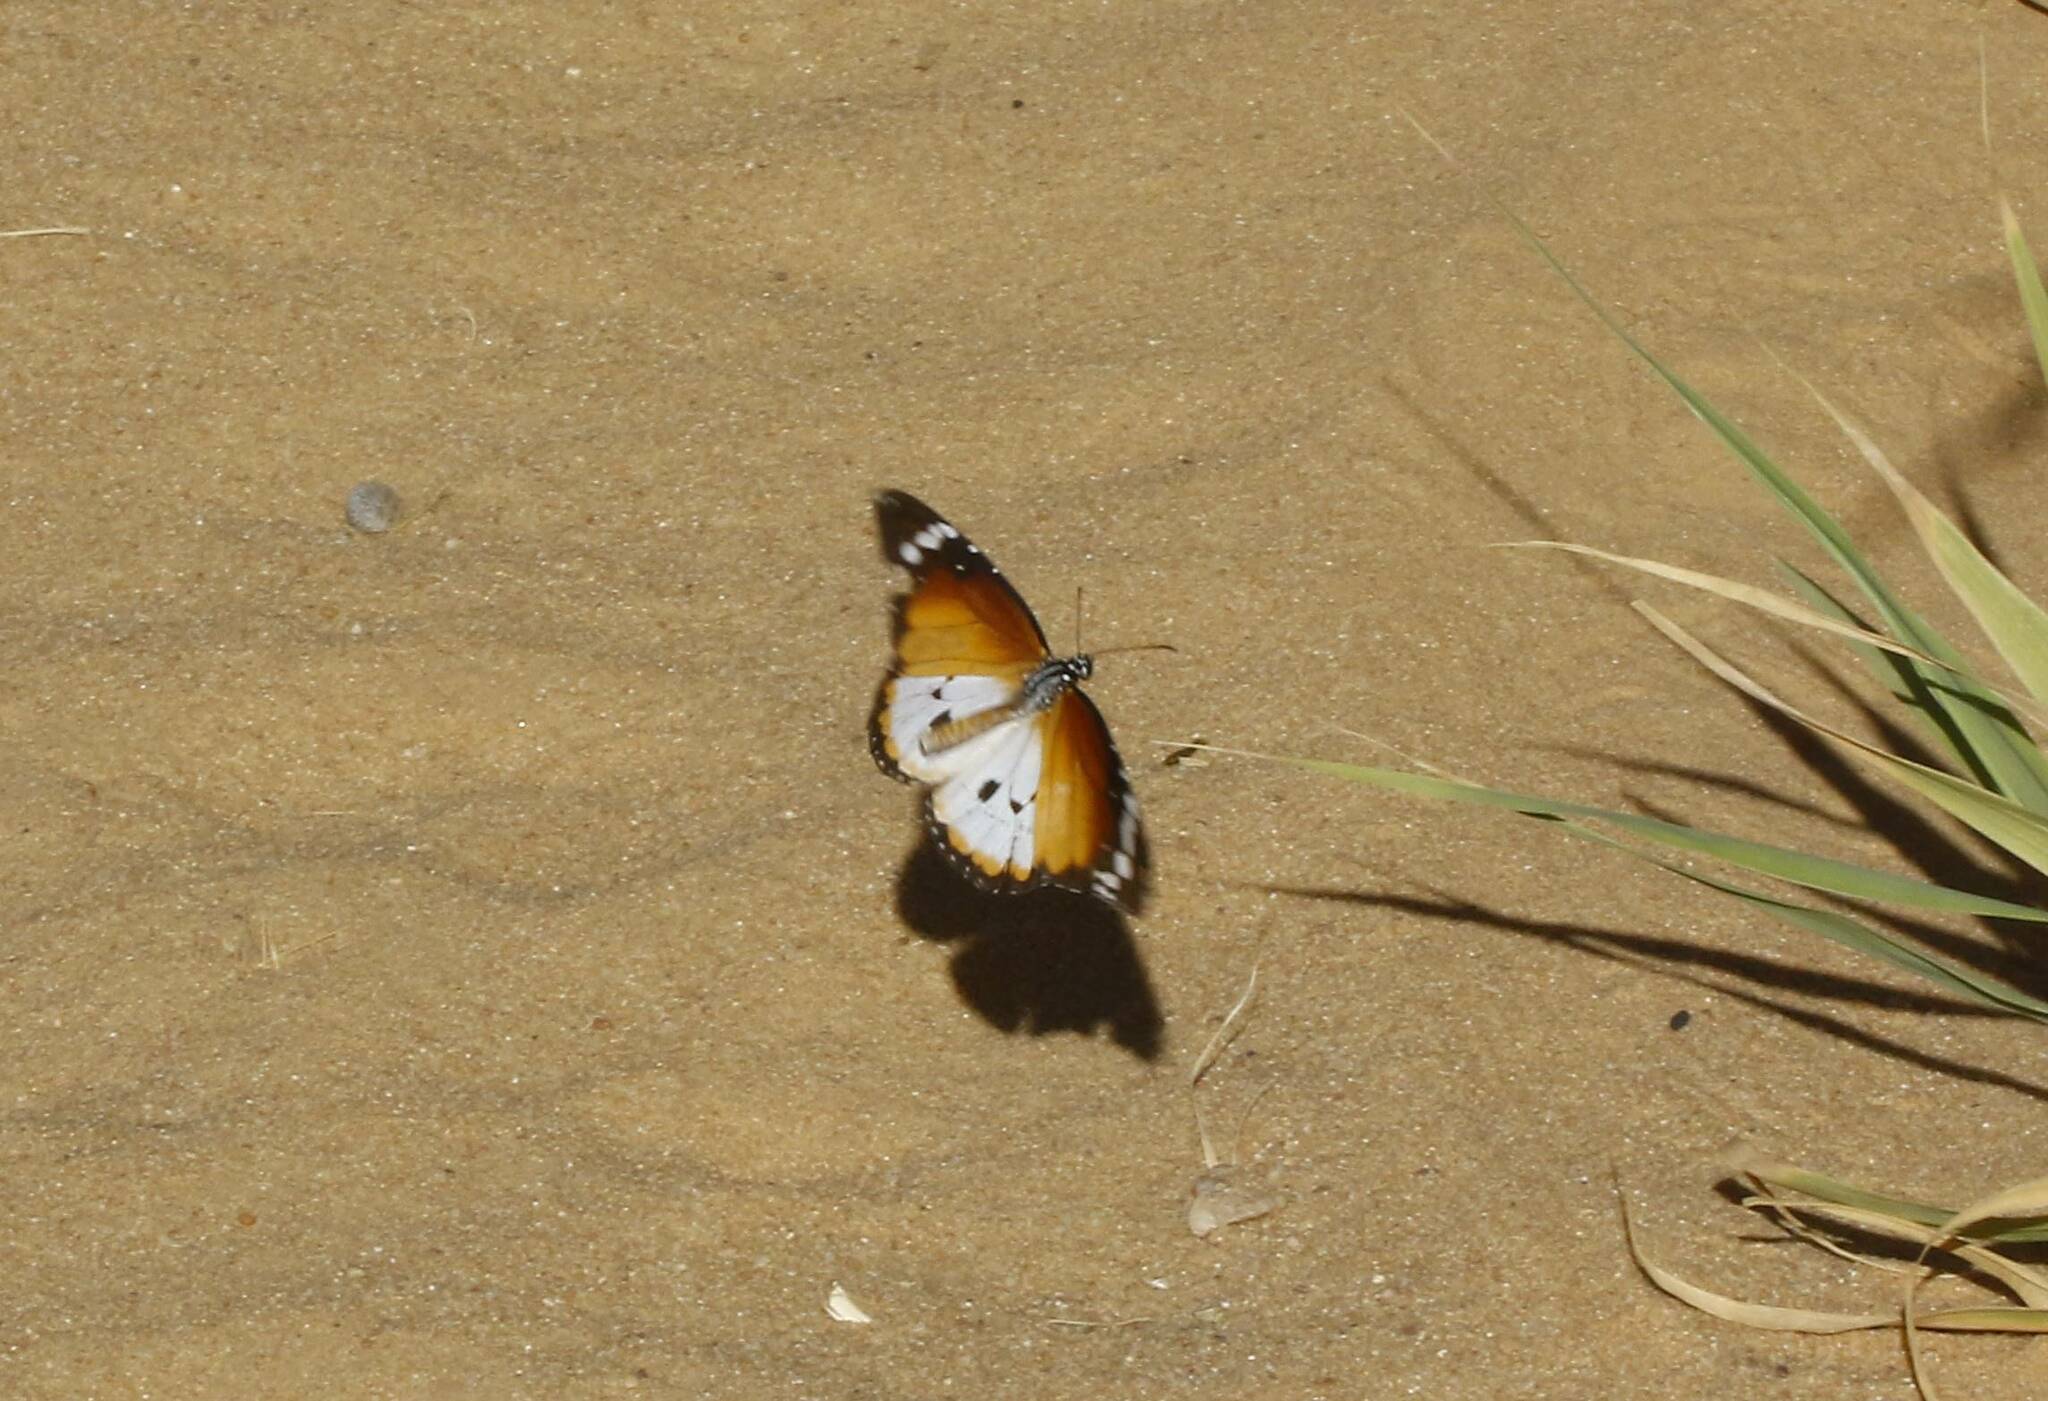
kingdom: Animalia
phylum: Arthropoda
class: Insecta
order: Lepidoptera
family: Nymphalidae
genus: Danaus
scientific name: Danaus chrysippus
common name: Plain tiger
